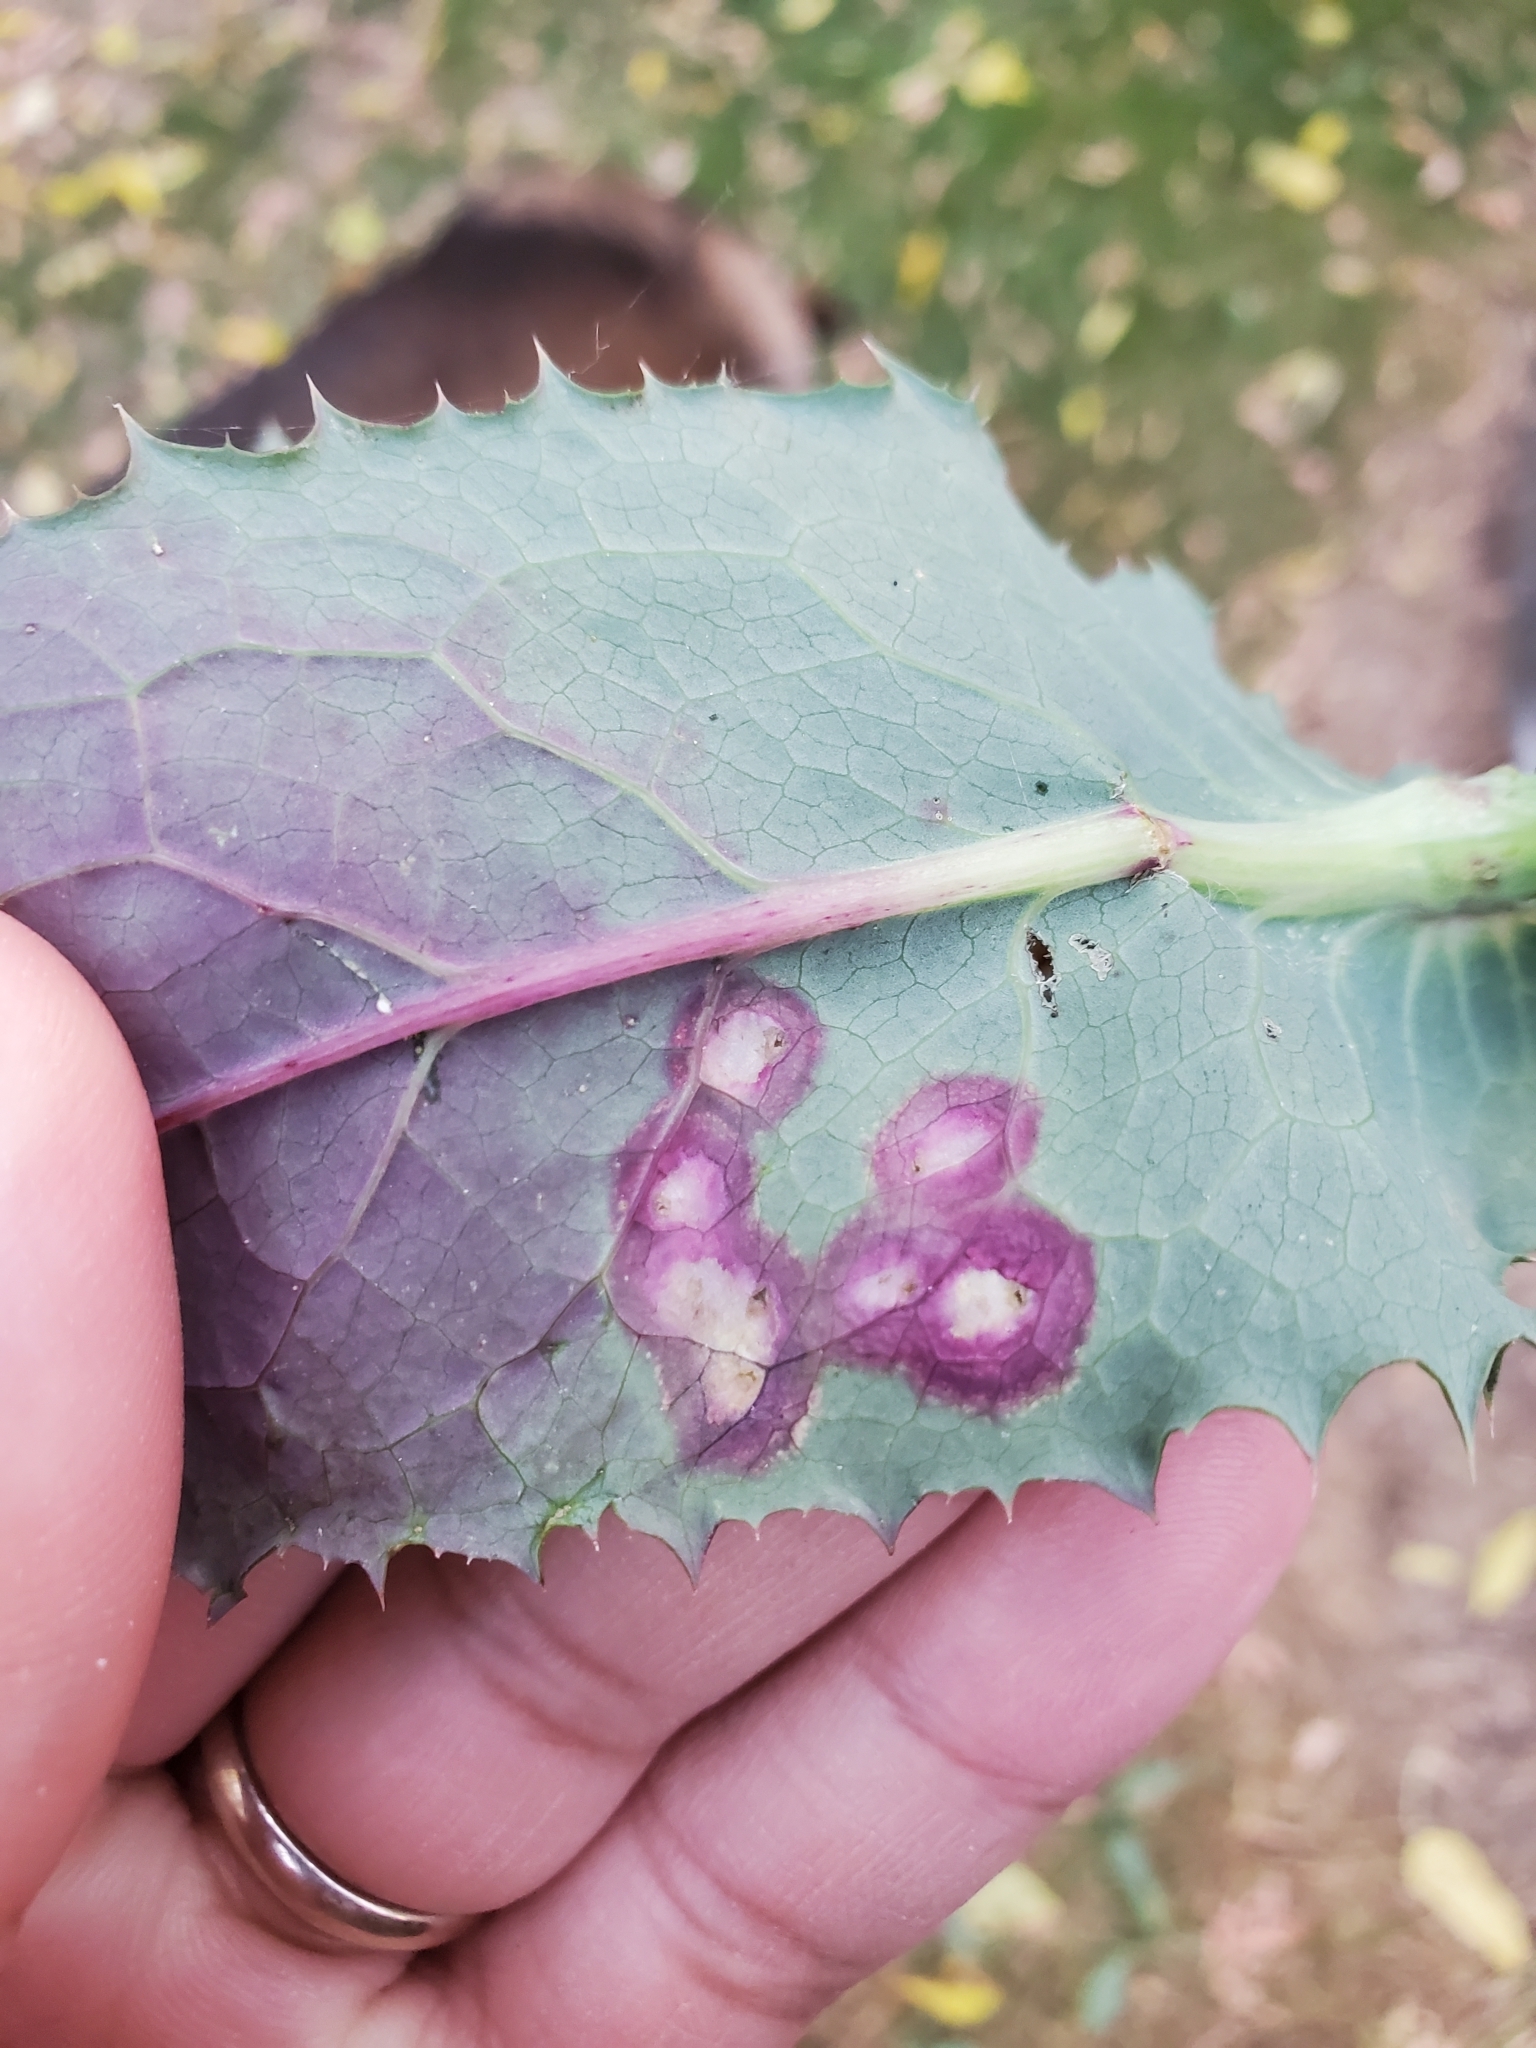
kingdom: Animalia
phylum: Arthropoda
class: Insecta
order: Diptera
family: Cecidomyiidae
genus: Cystiphora
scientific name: Cystiphora sonchi
